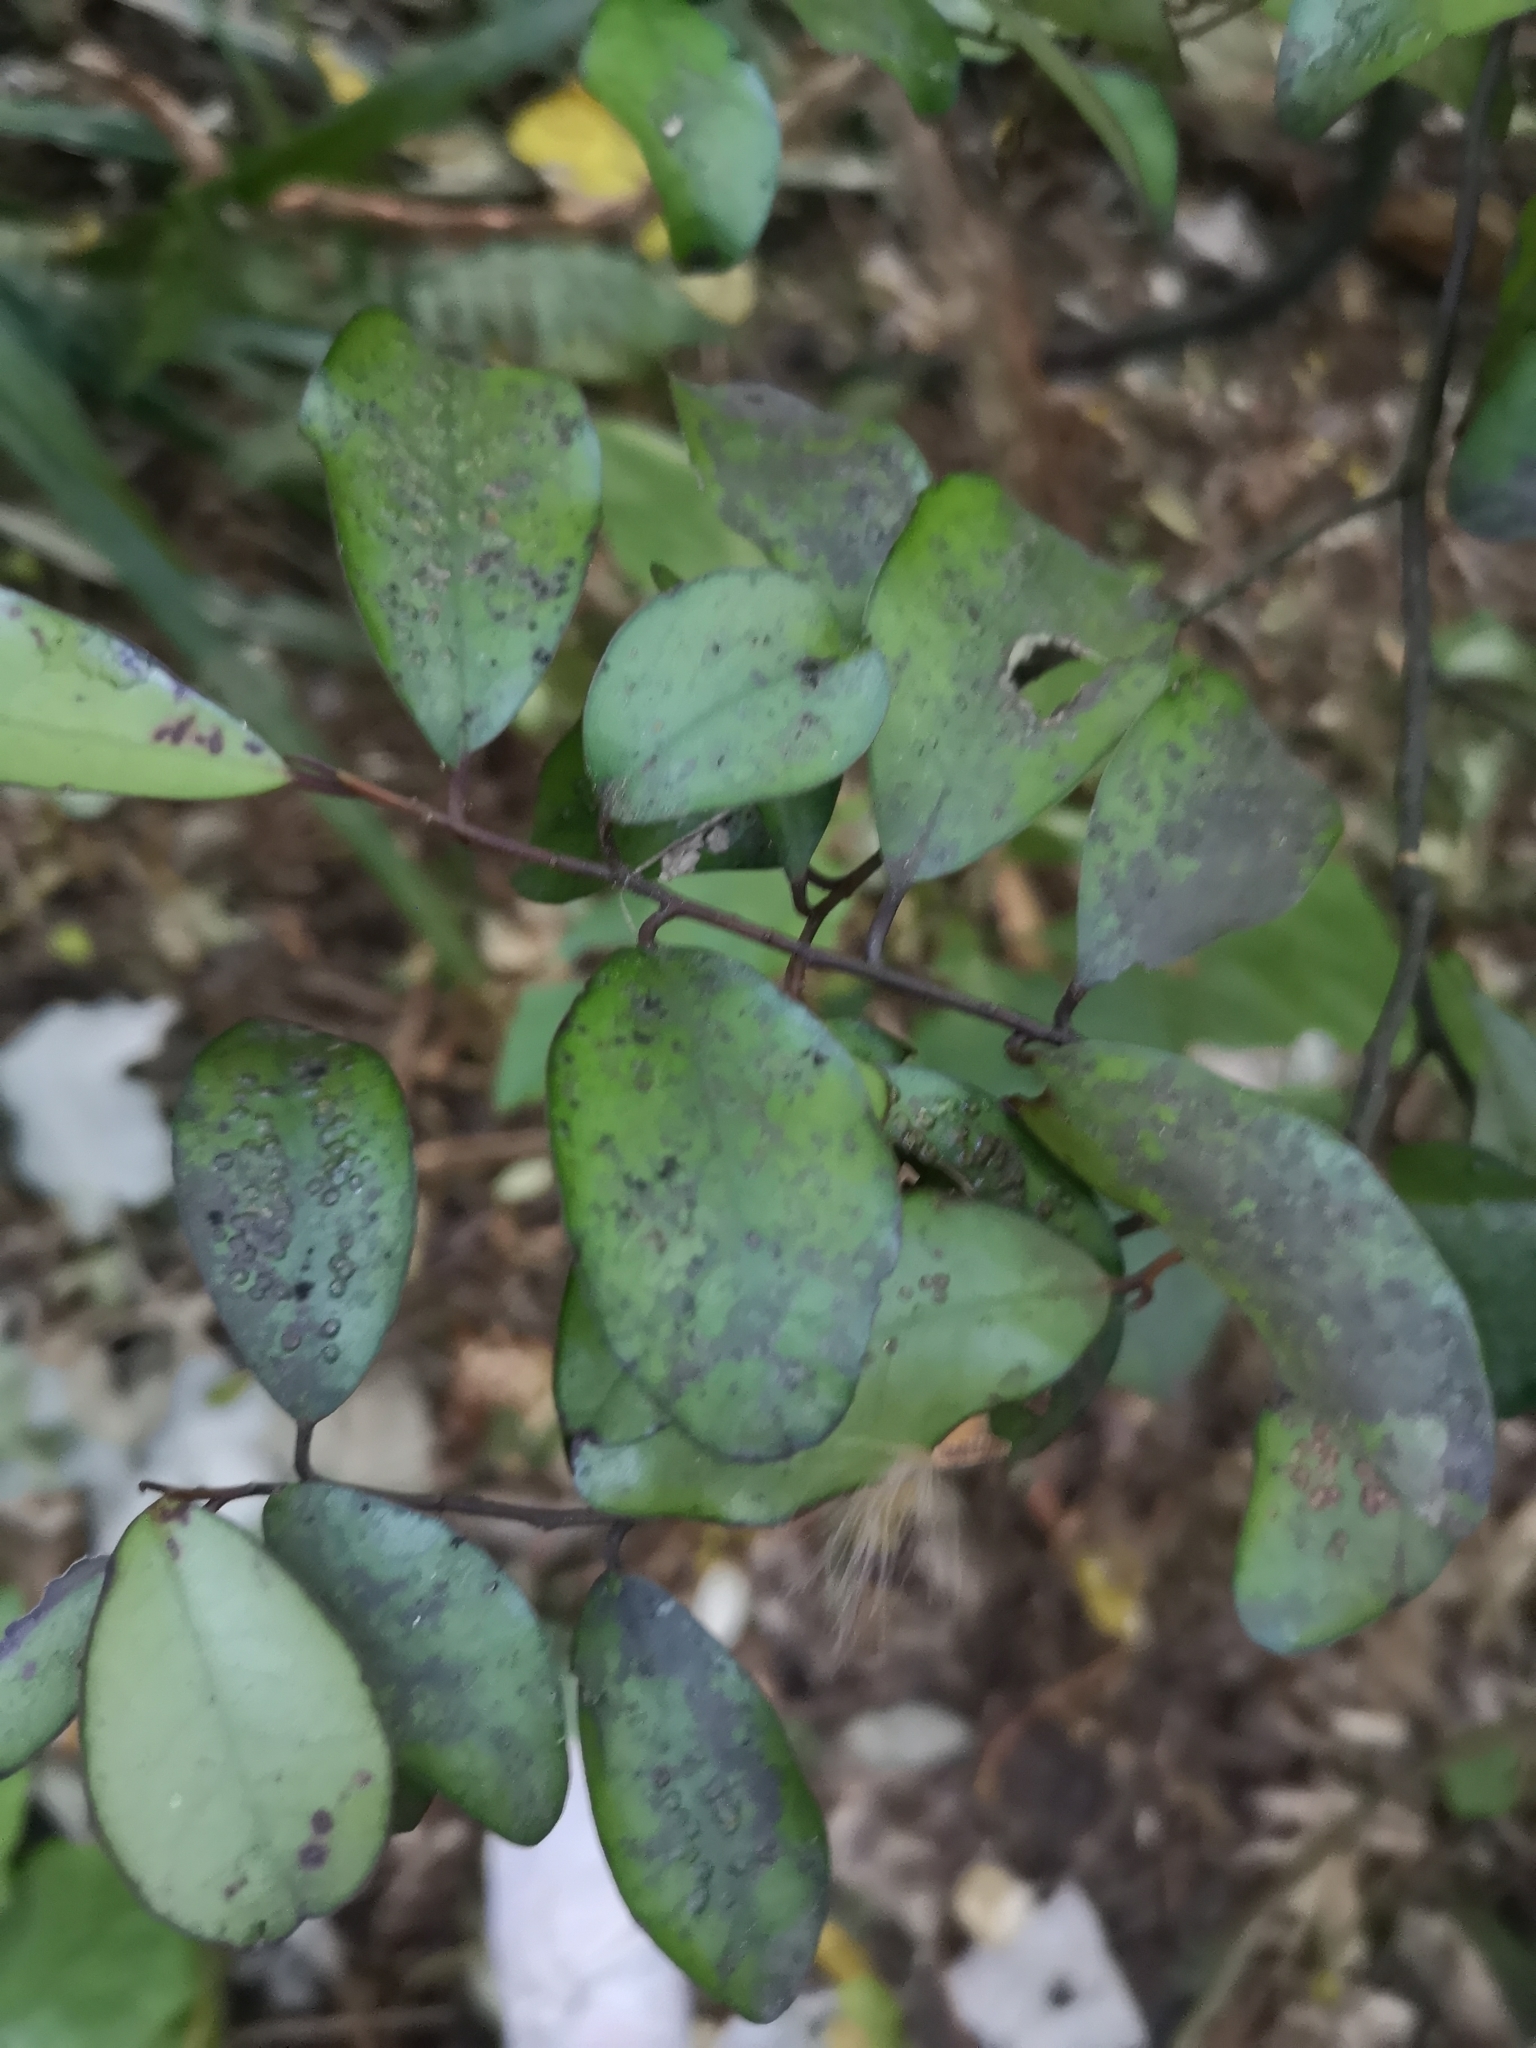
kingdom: Plantae
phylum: Tracheophyta
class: Magnoliopsida
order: Canellales
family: Winteraceae
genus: Pseudowintera
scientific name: Pseudowintera colorata
